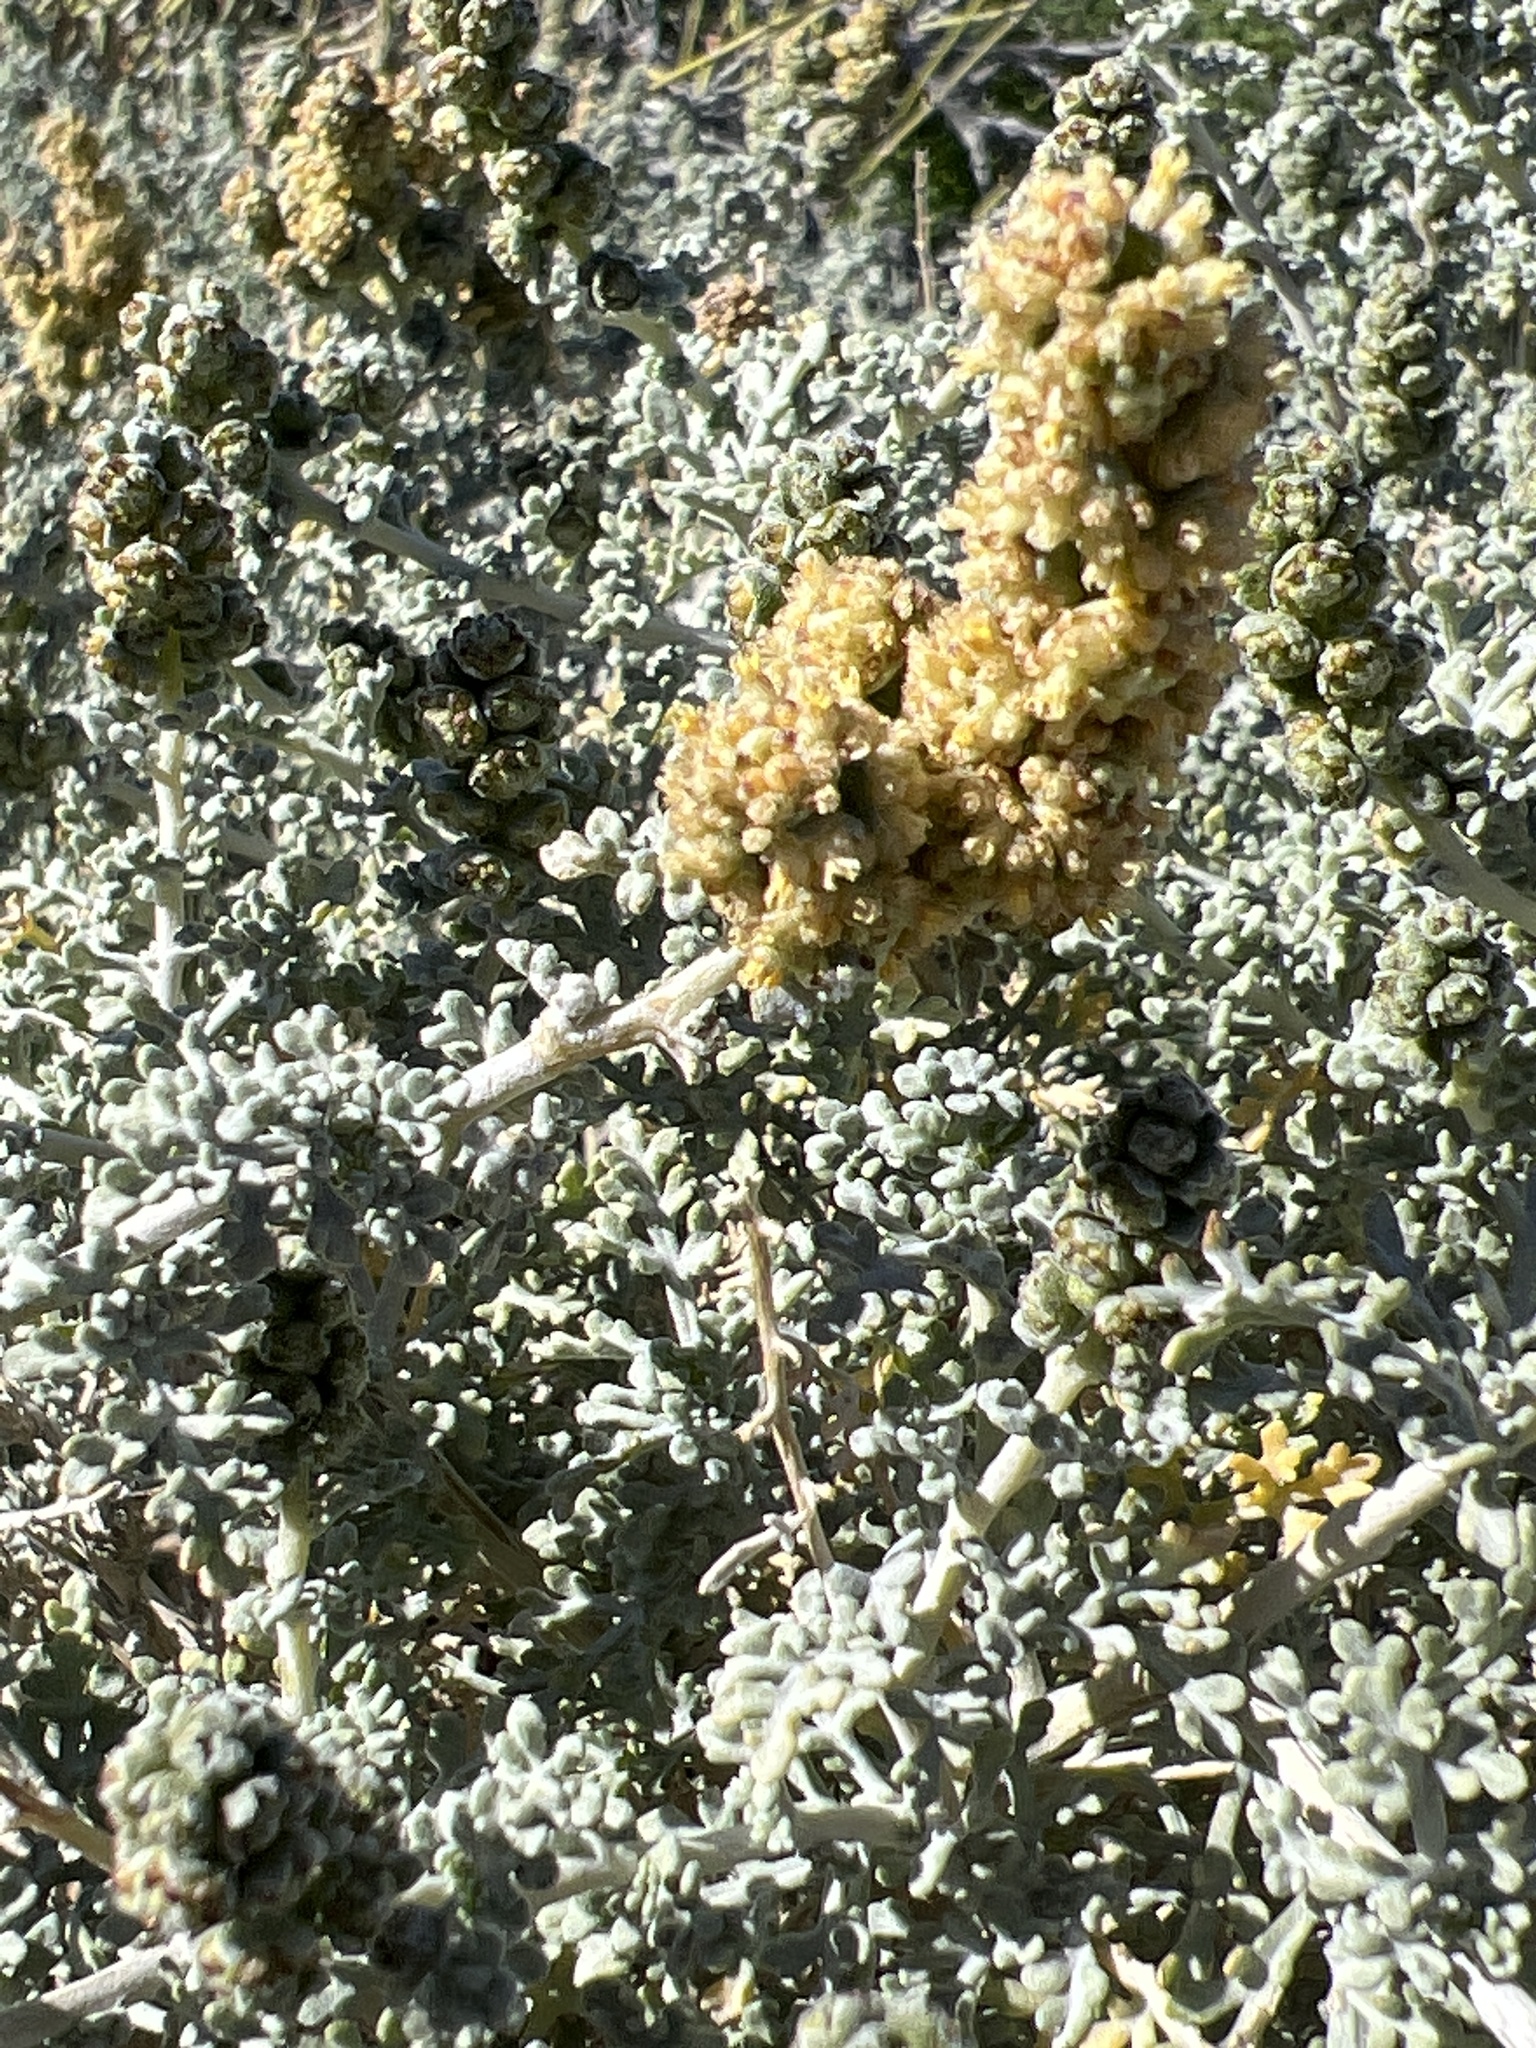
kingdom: Plantae
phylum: Tracheophyta
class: Magnoliopsida
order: Asterales
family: Asteraceae
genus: Ambrosia
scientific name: Ambrosia dumosa
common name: Bur-sage
